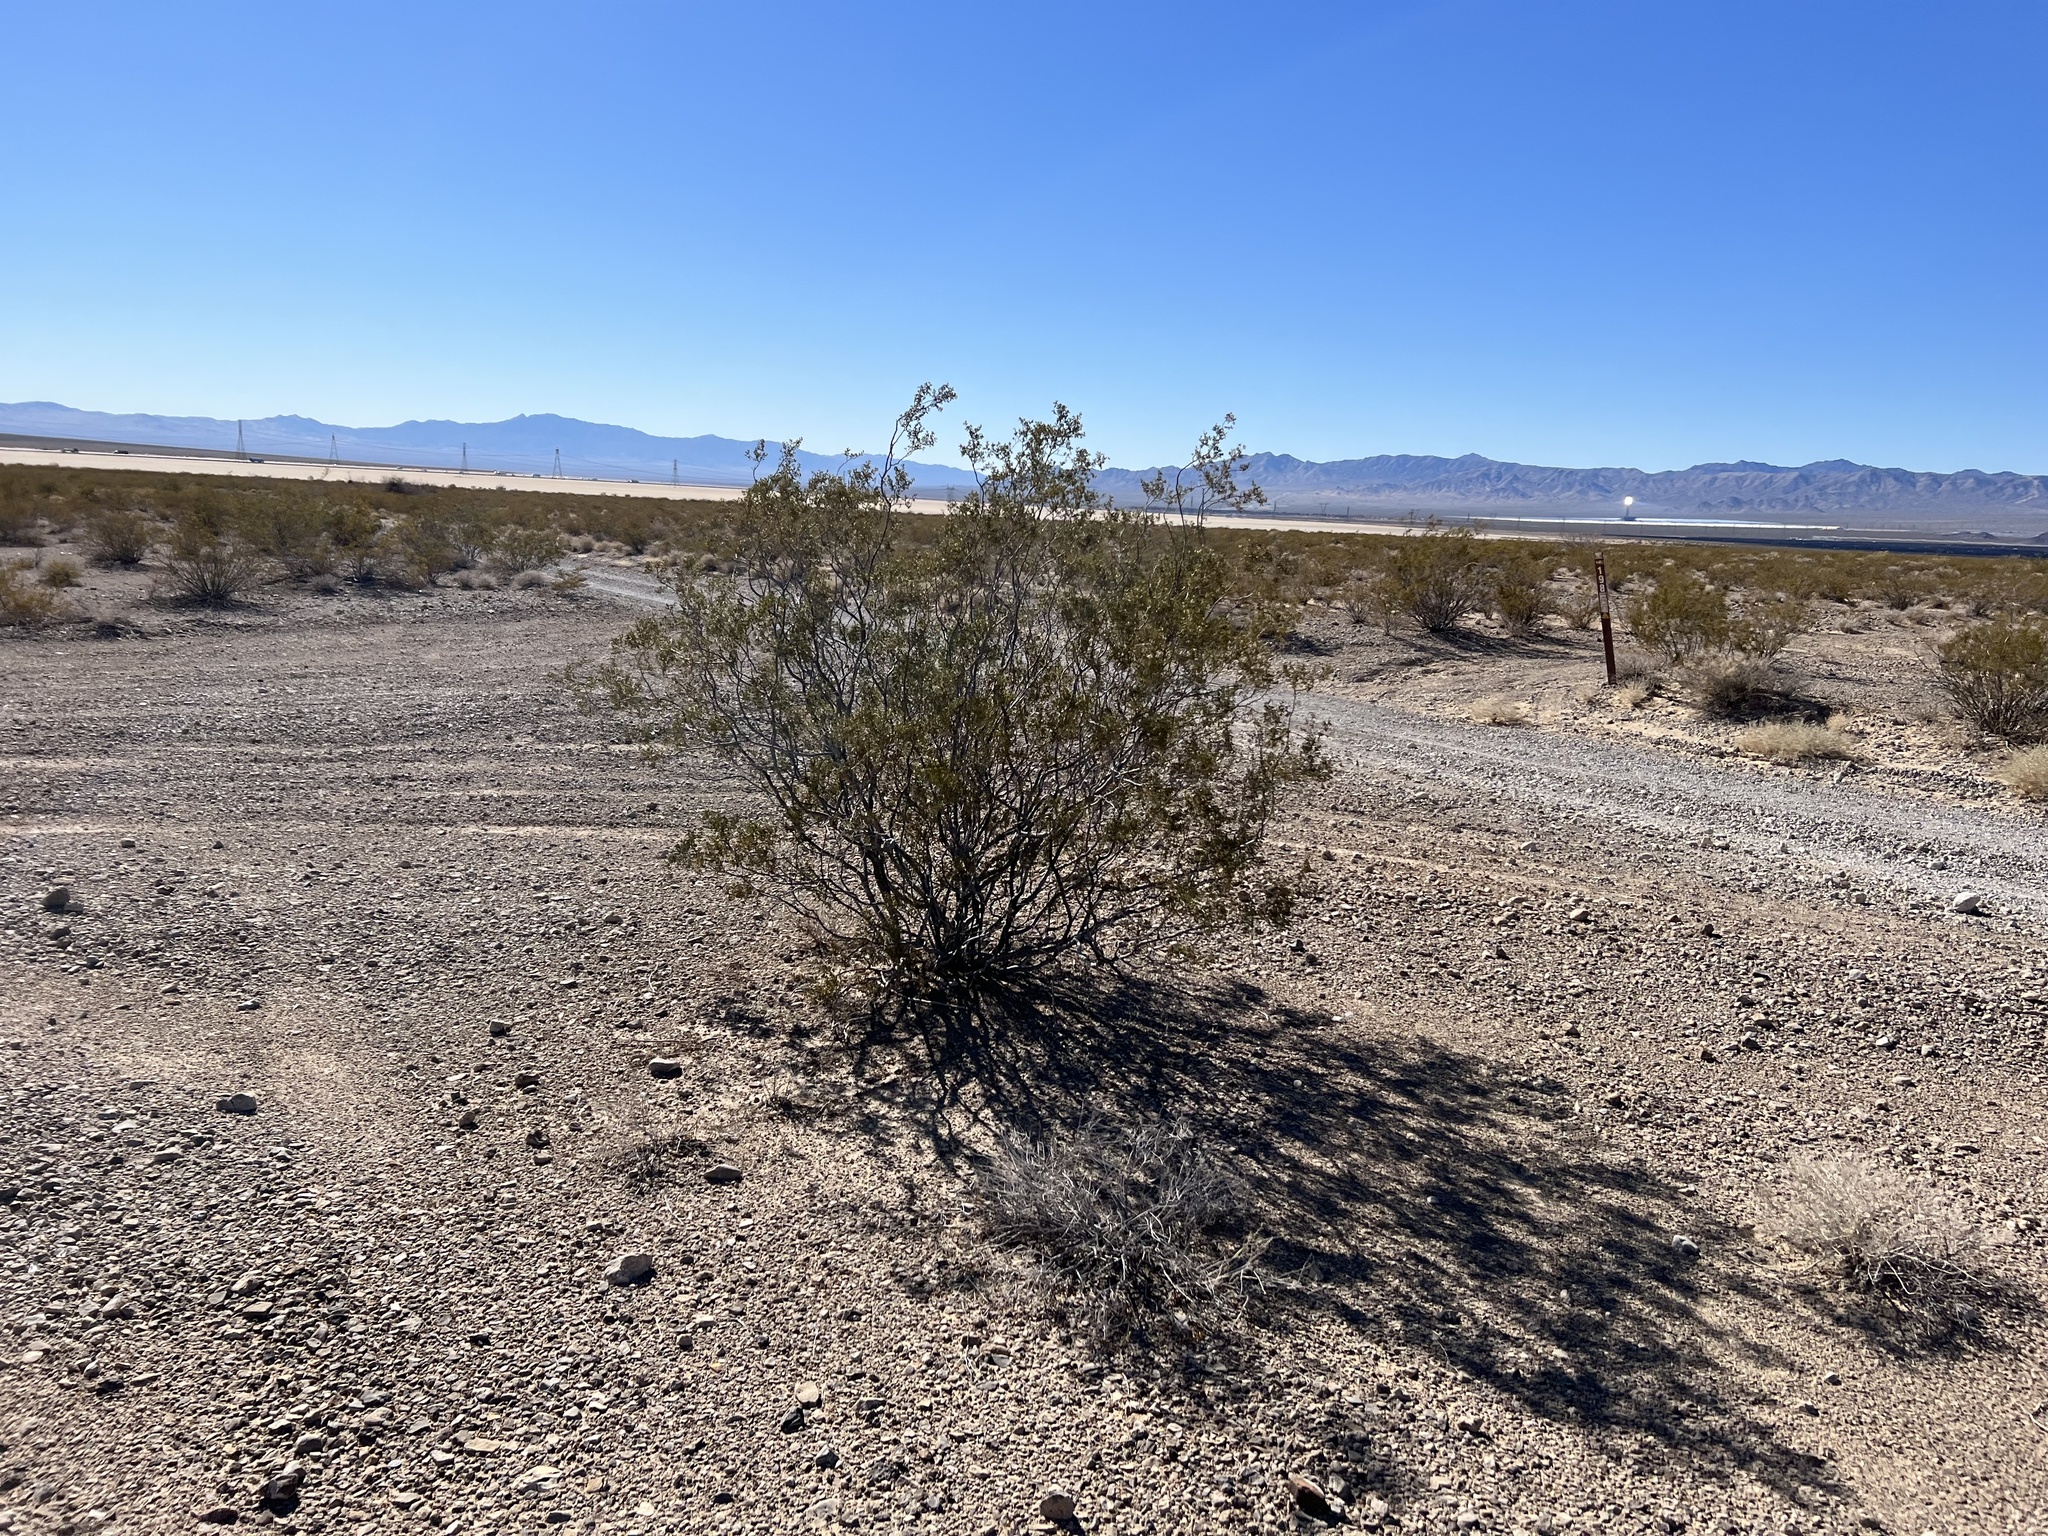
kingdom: Plantae
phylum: Tracheophyta
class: Magnoliopsida
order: Zygophyllales
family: Zygophyllaceae
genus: Larrea
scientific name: Larrea tridentata
